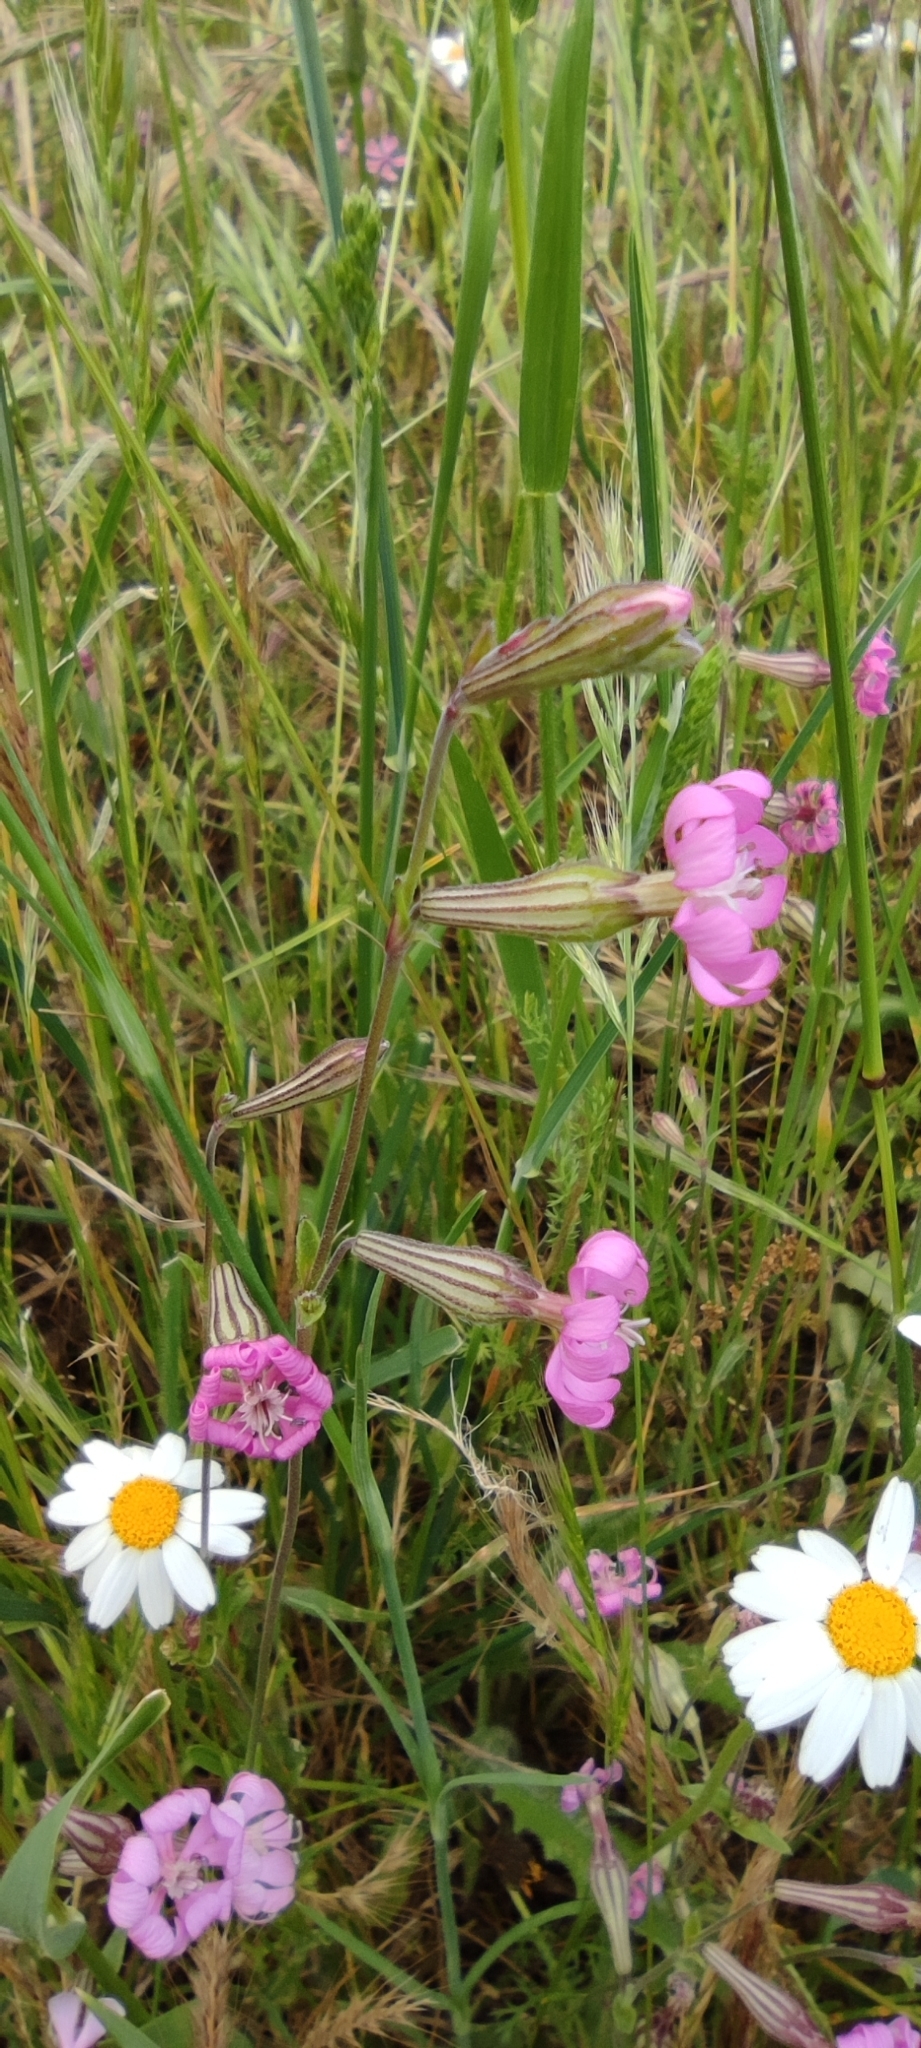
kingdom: Plantae
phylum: Tracheophyta
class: Magnoliopsida
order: Caryophyllales
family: Caryophyllaceae
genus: Silene
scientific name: Silene colorata
